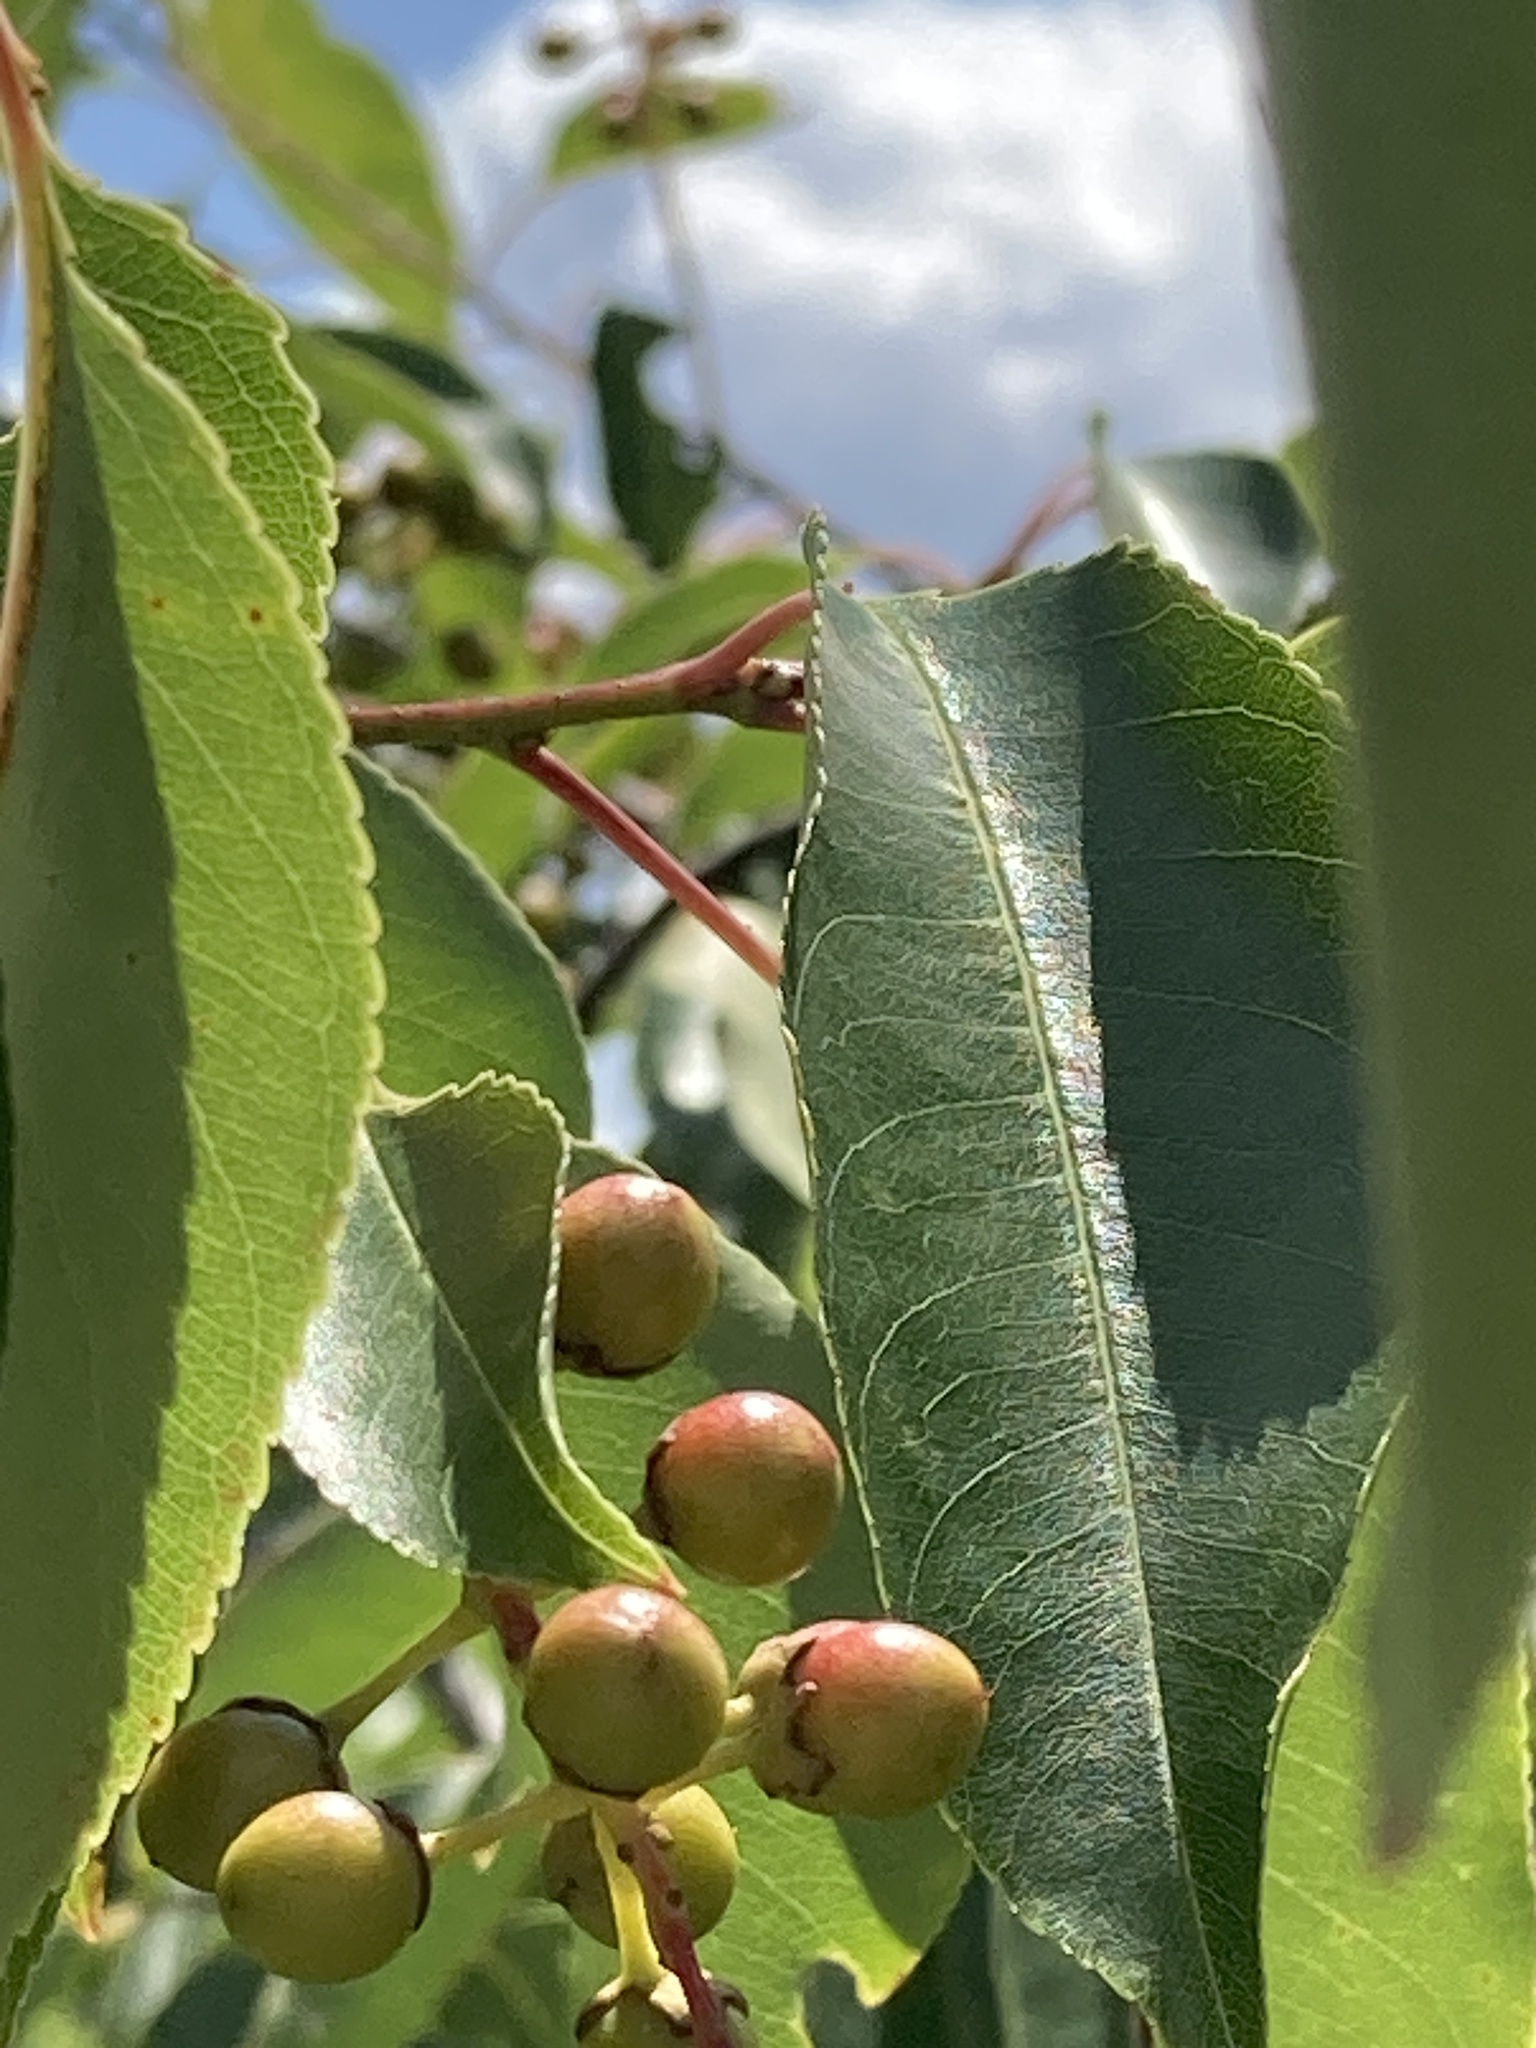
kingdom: Plantae
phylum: Tracheophyta
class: Magnoliopsida
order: Rosales
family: Rosaceae
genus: Prunus
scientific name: Prunus serotina
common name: Black cherry
